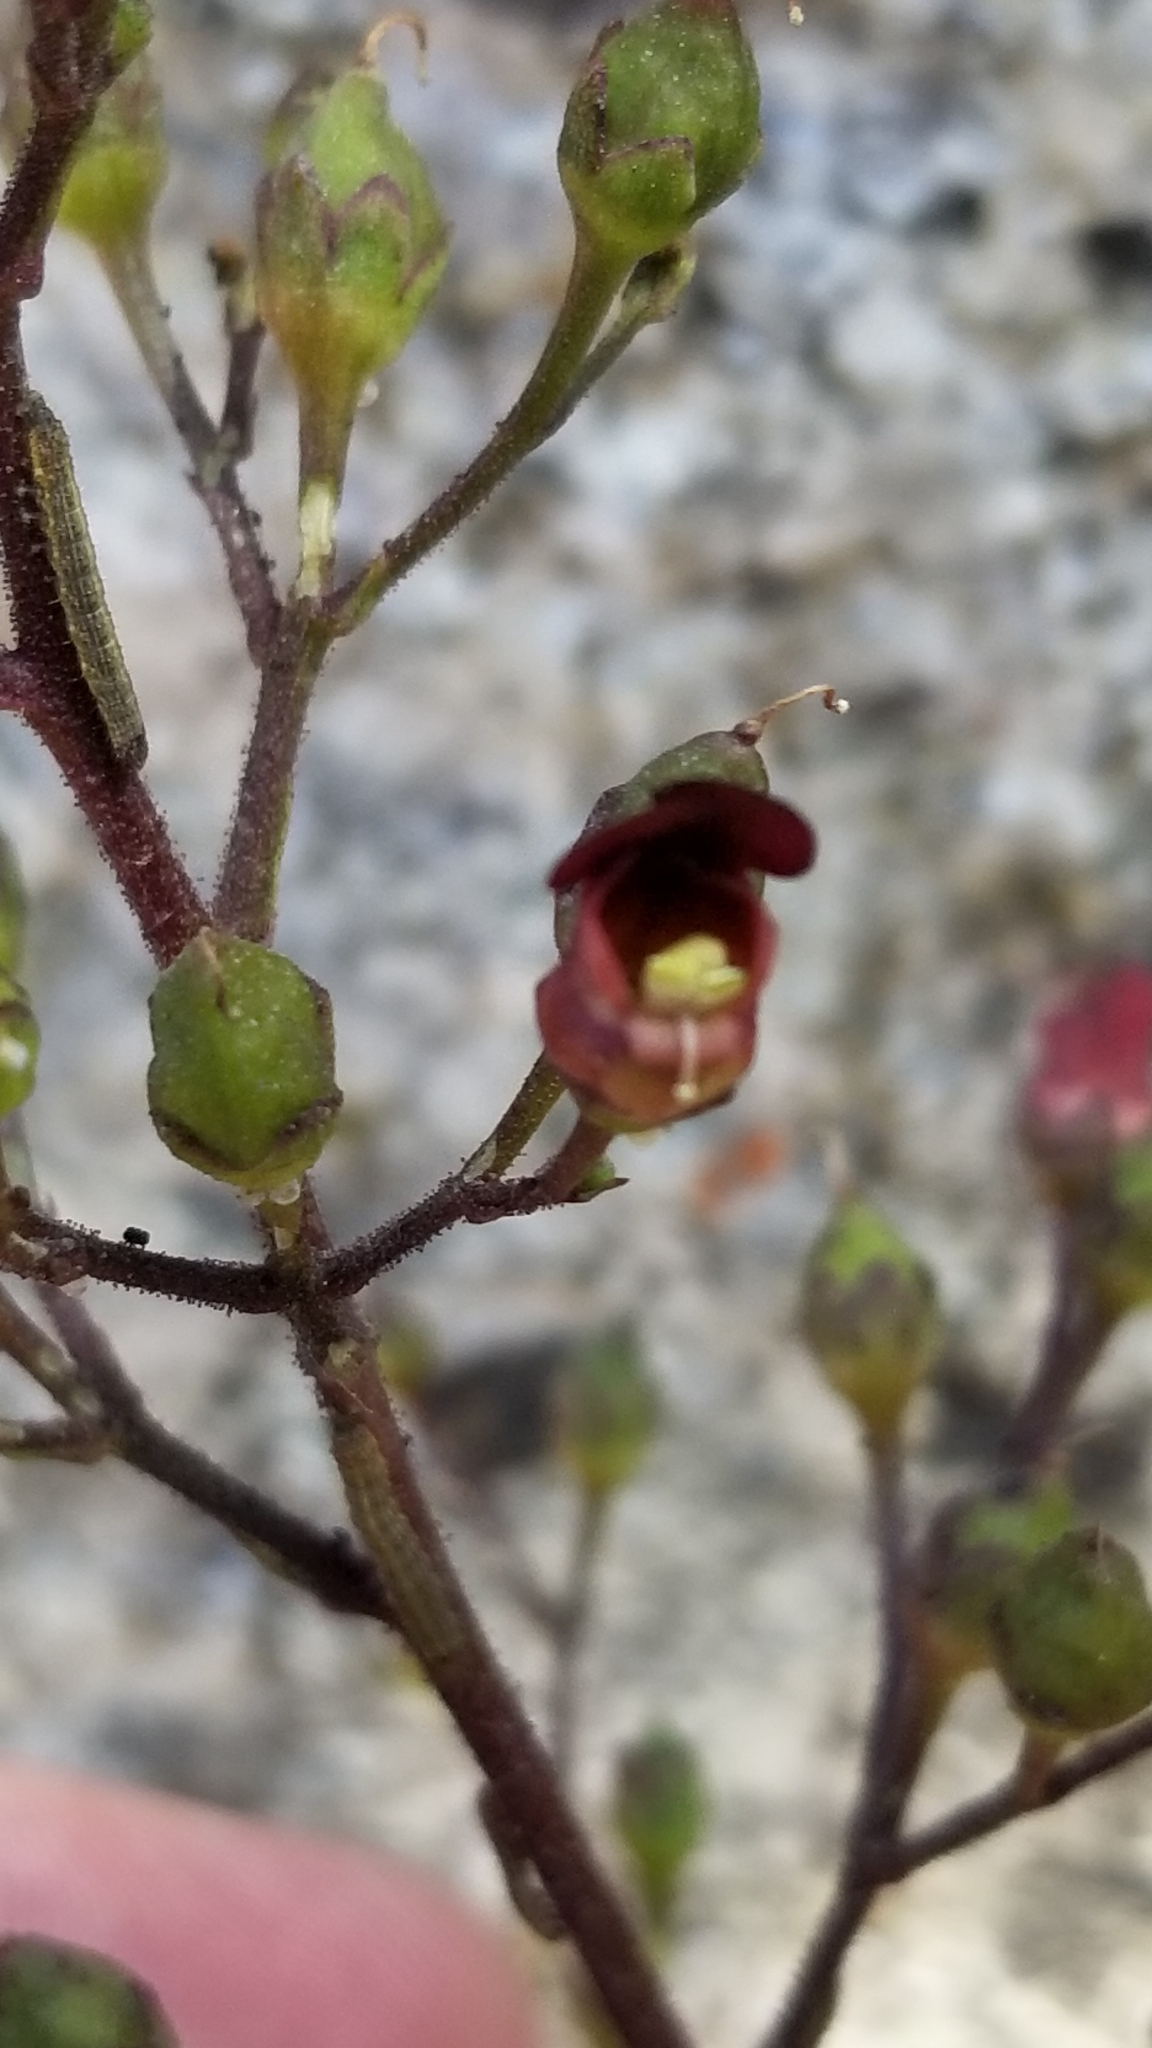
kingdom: Plantae
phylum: Tracheophyta
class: Magnoliopsida
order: Lamiales
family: Scrophulariaceae
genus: Scrophularia
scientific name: Scrophularia californica
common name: California figwort
